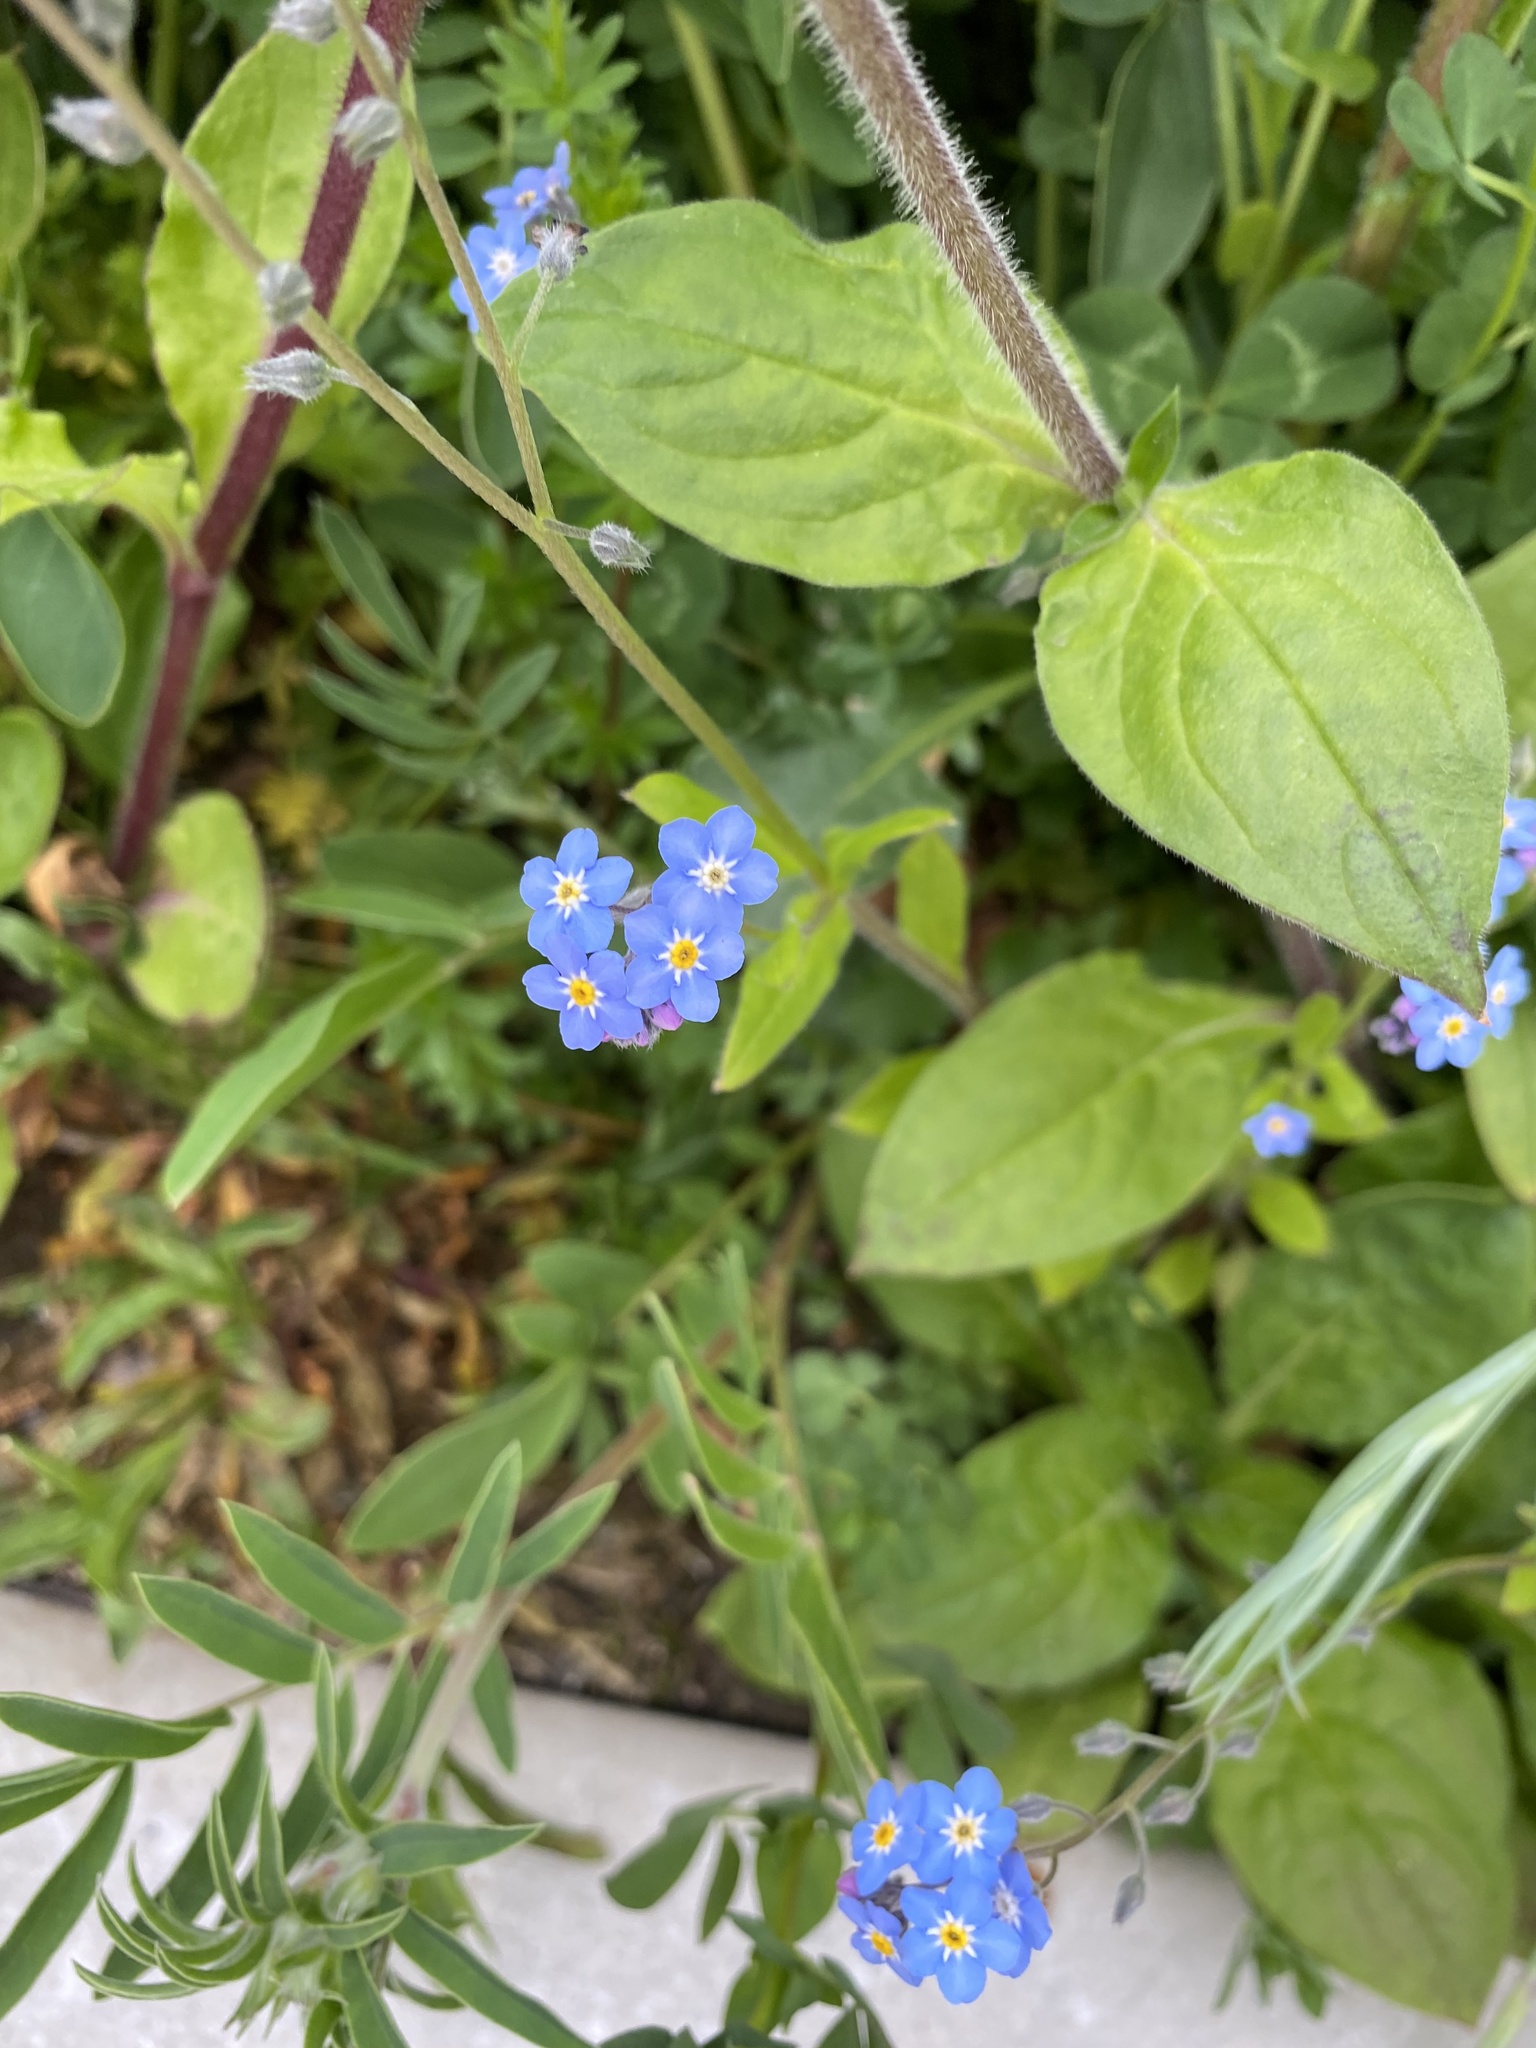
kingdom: Plantae
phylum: Tracheophyta
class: Magnoliopsida
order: Boraginales
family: Boraginaceae
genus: Myosotis
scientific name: Myosotis sylvatica
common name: Wood forget-me-not
